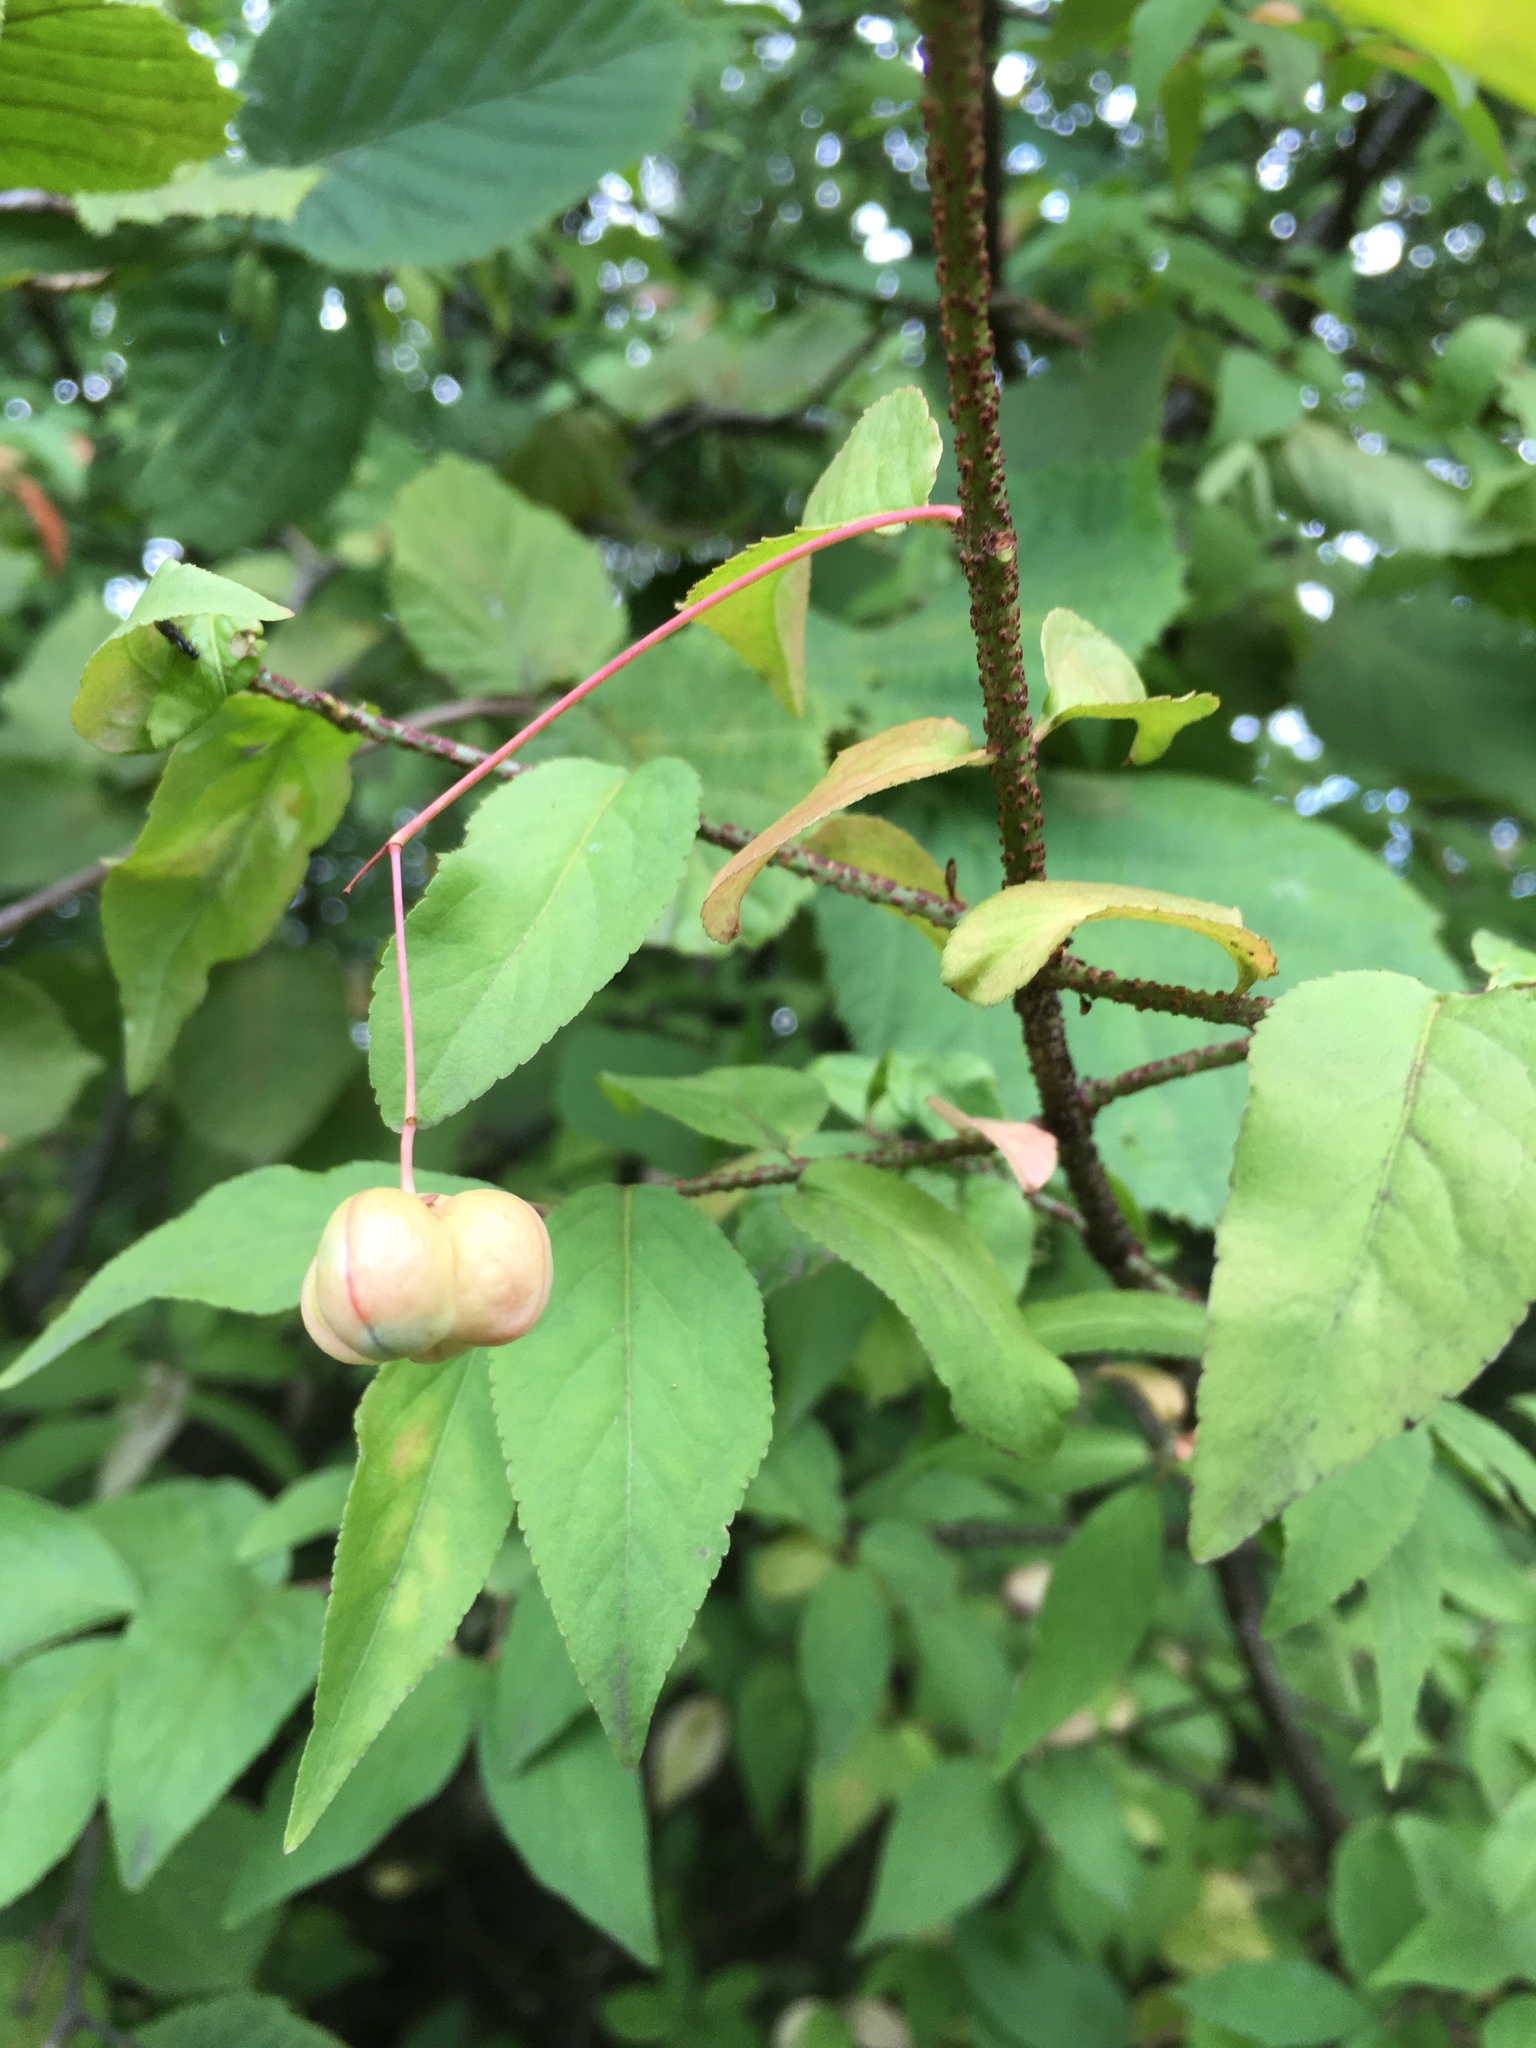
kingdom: Plantae
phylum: Tracheophyta
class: Magnoliopsida
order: Celastrales
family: Celastraceae
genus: Euonymus
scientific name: Euonymus verrucosus
